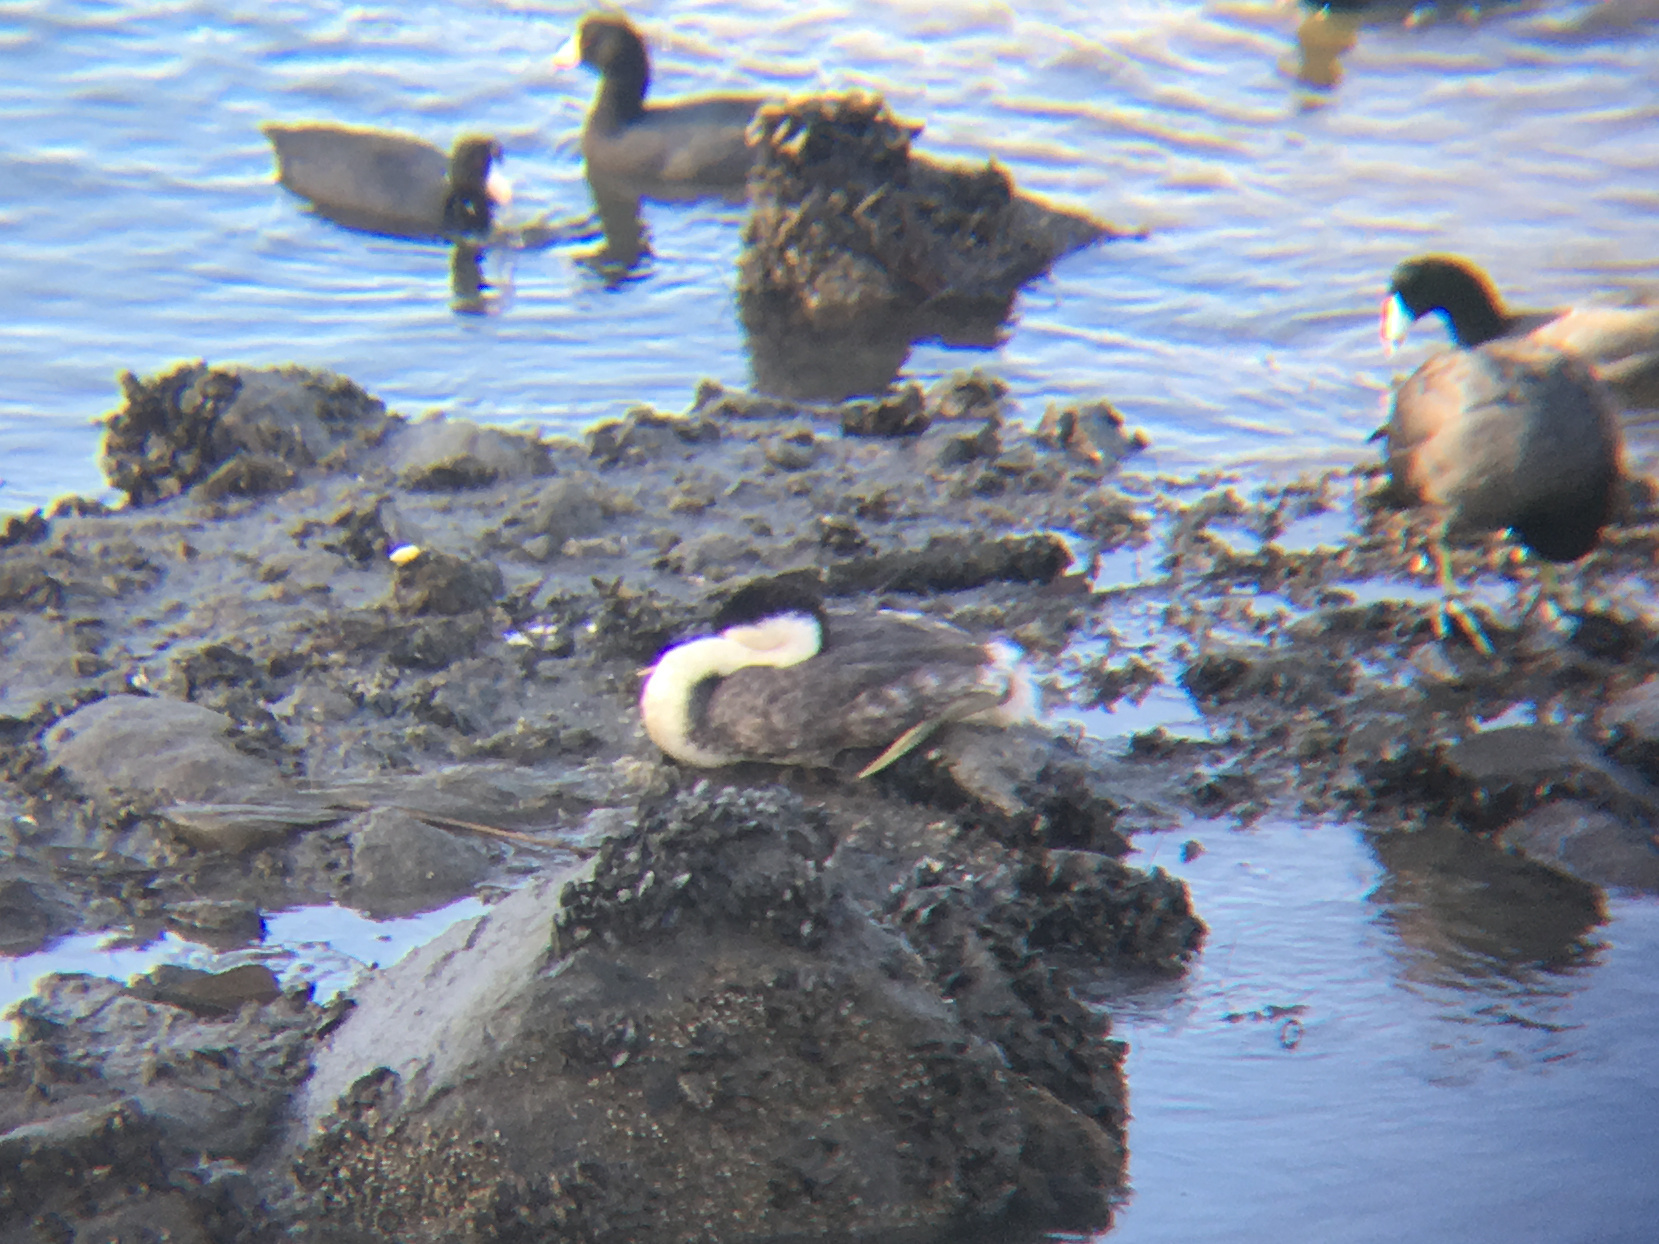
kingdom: Animalia
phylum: Chordata
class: Aves
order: Podicipediformes
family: Podicipedidae
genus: Aechmophorus
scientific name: Aechmophorus occidentalis
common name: Western grebe
